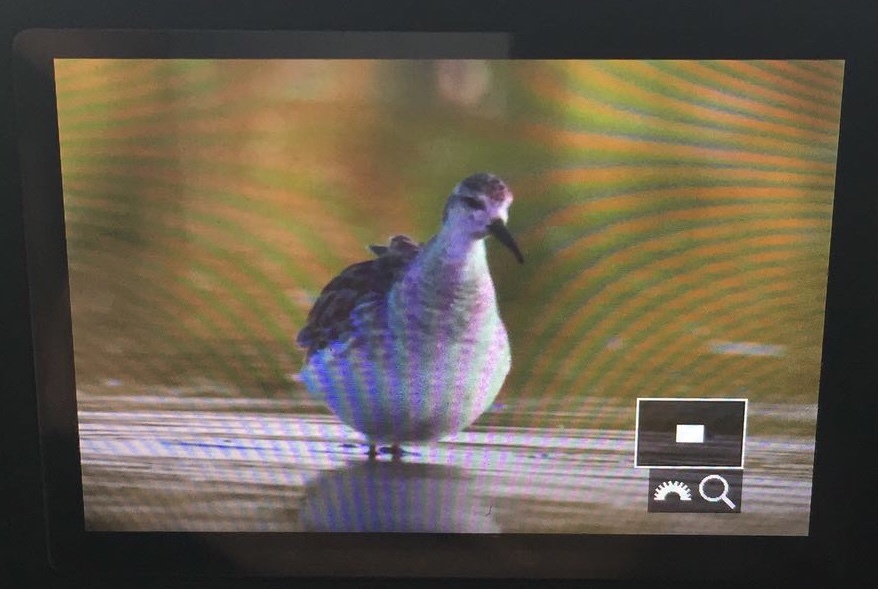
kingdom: Animalia
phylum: Chordata
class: Aves
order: Charadriiformes
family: Scolopacidae
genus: Calidris
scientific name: Calidris pugnax
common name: Ruff
